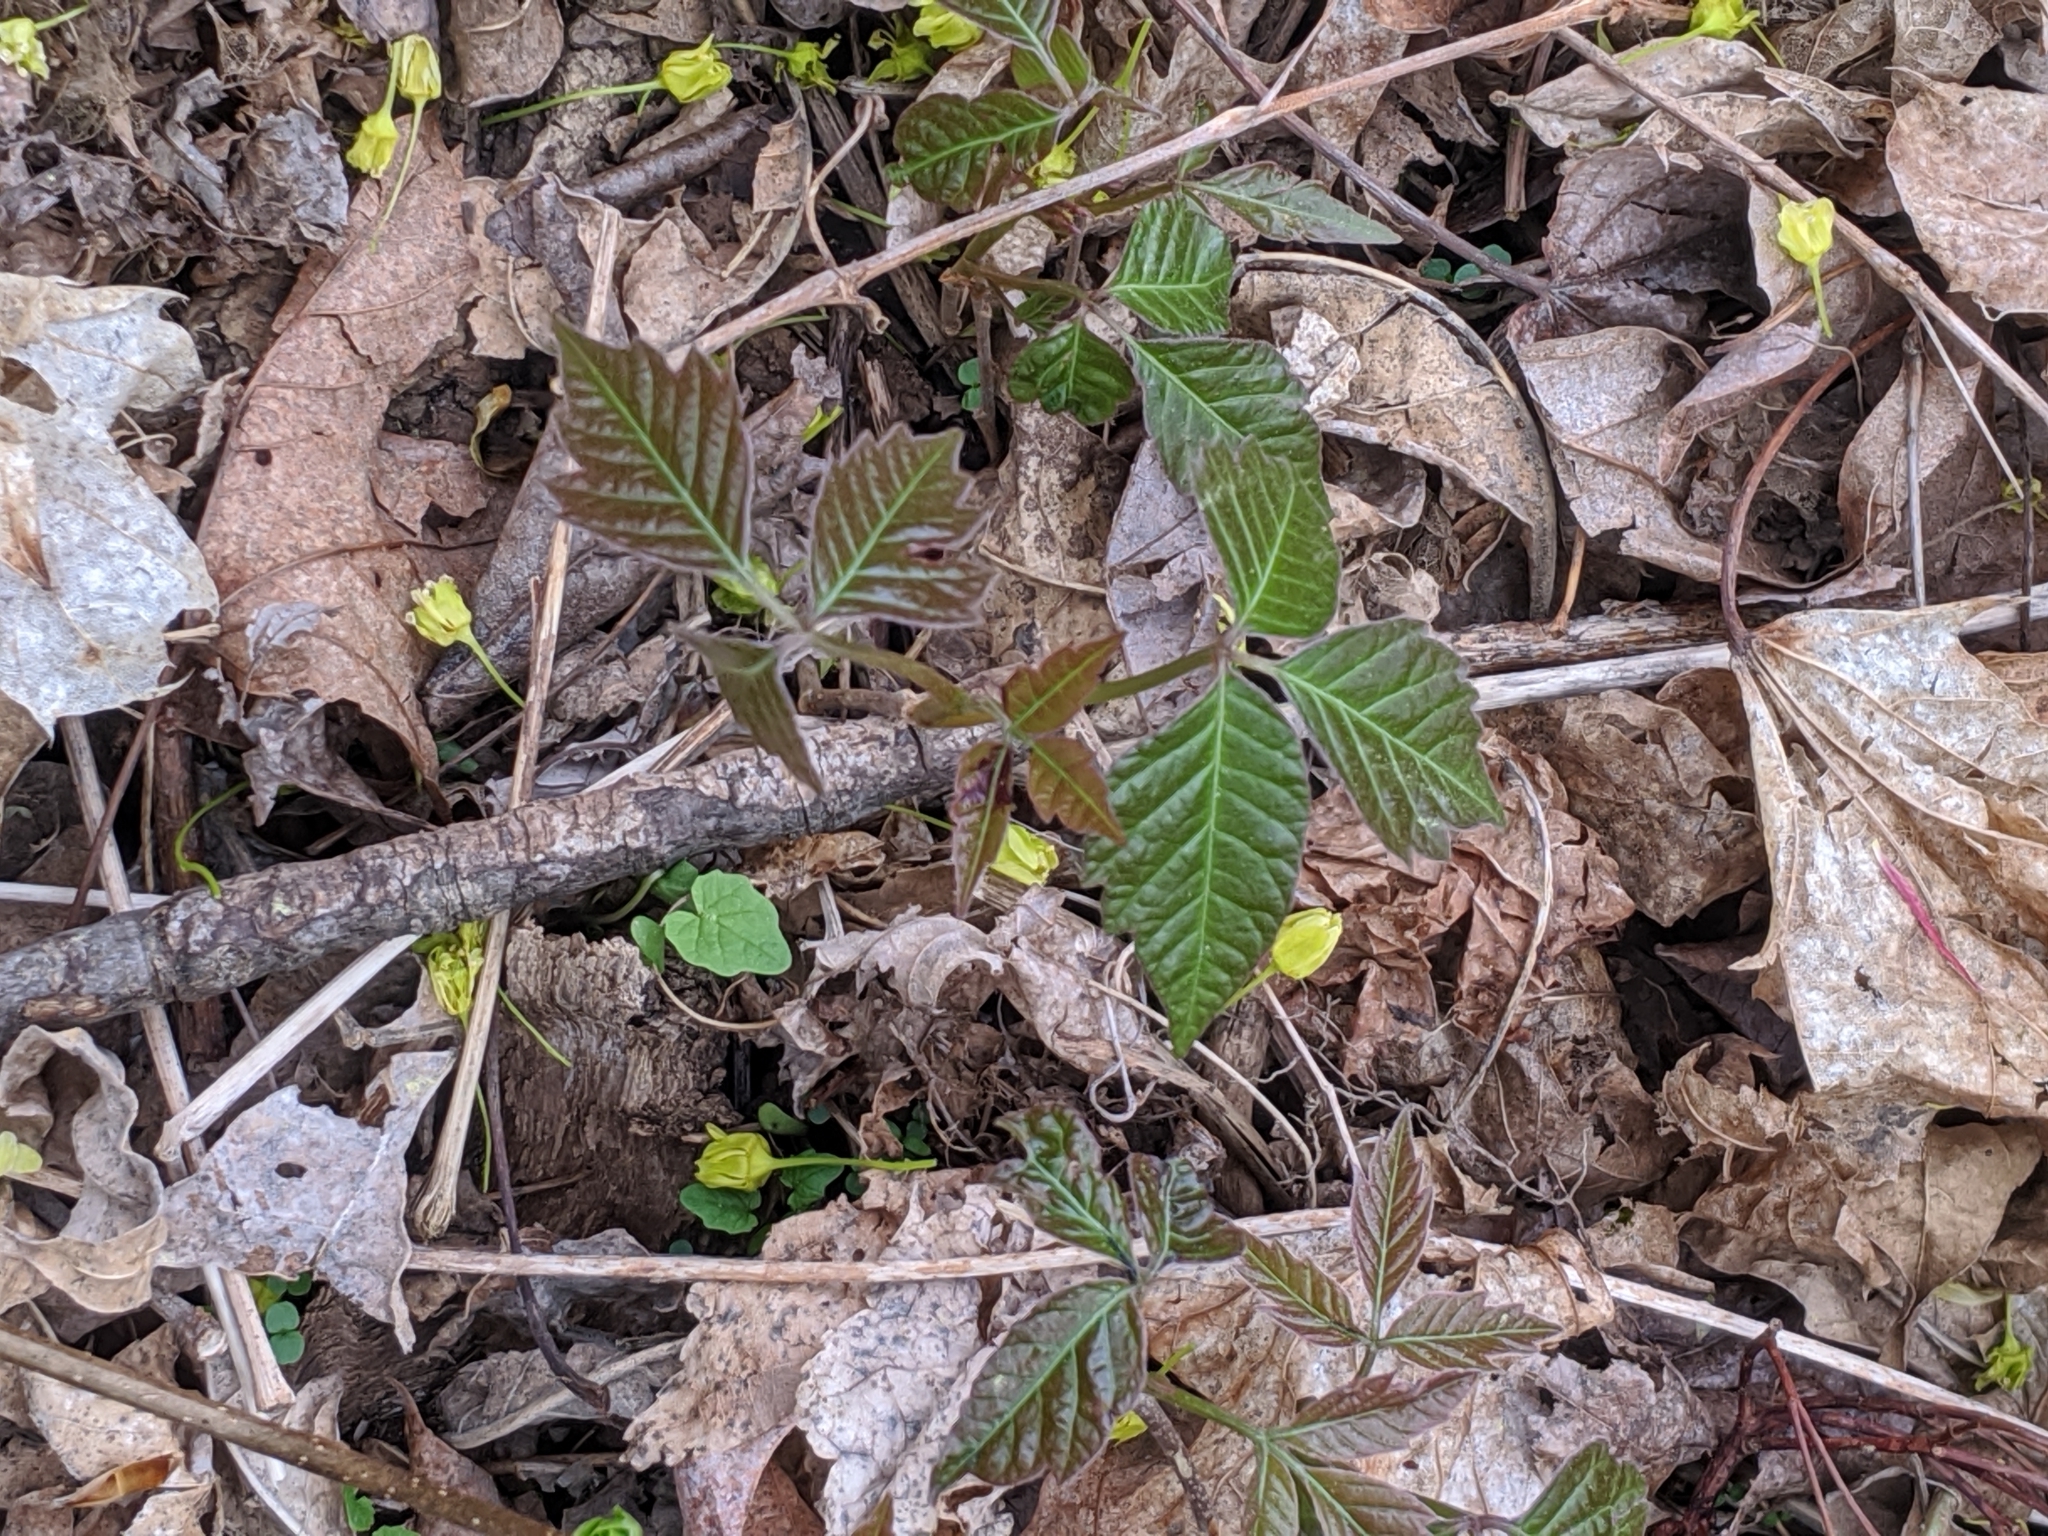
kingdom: Plantae
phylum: Tracheophyta
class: Magnoliopsida
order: Sapindales
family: Anacardiaceae
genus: Toxicodendron
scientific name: Toxicodendron radicans
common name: Poison ivy
